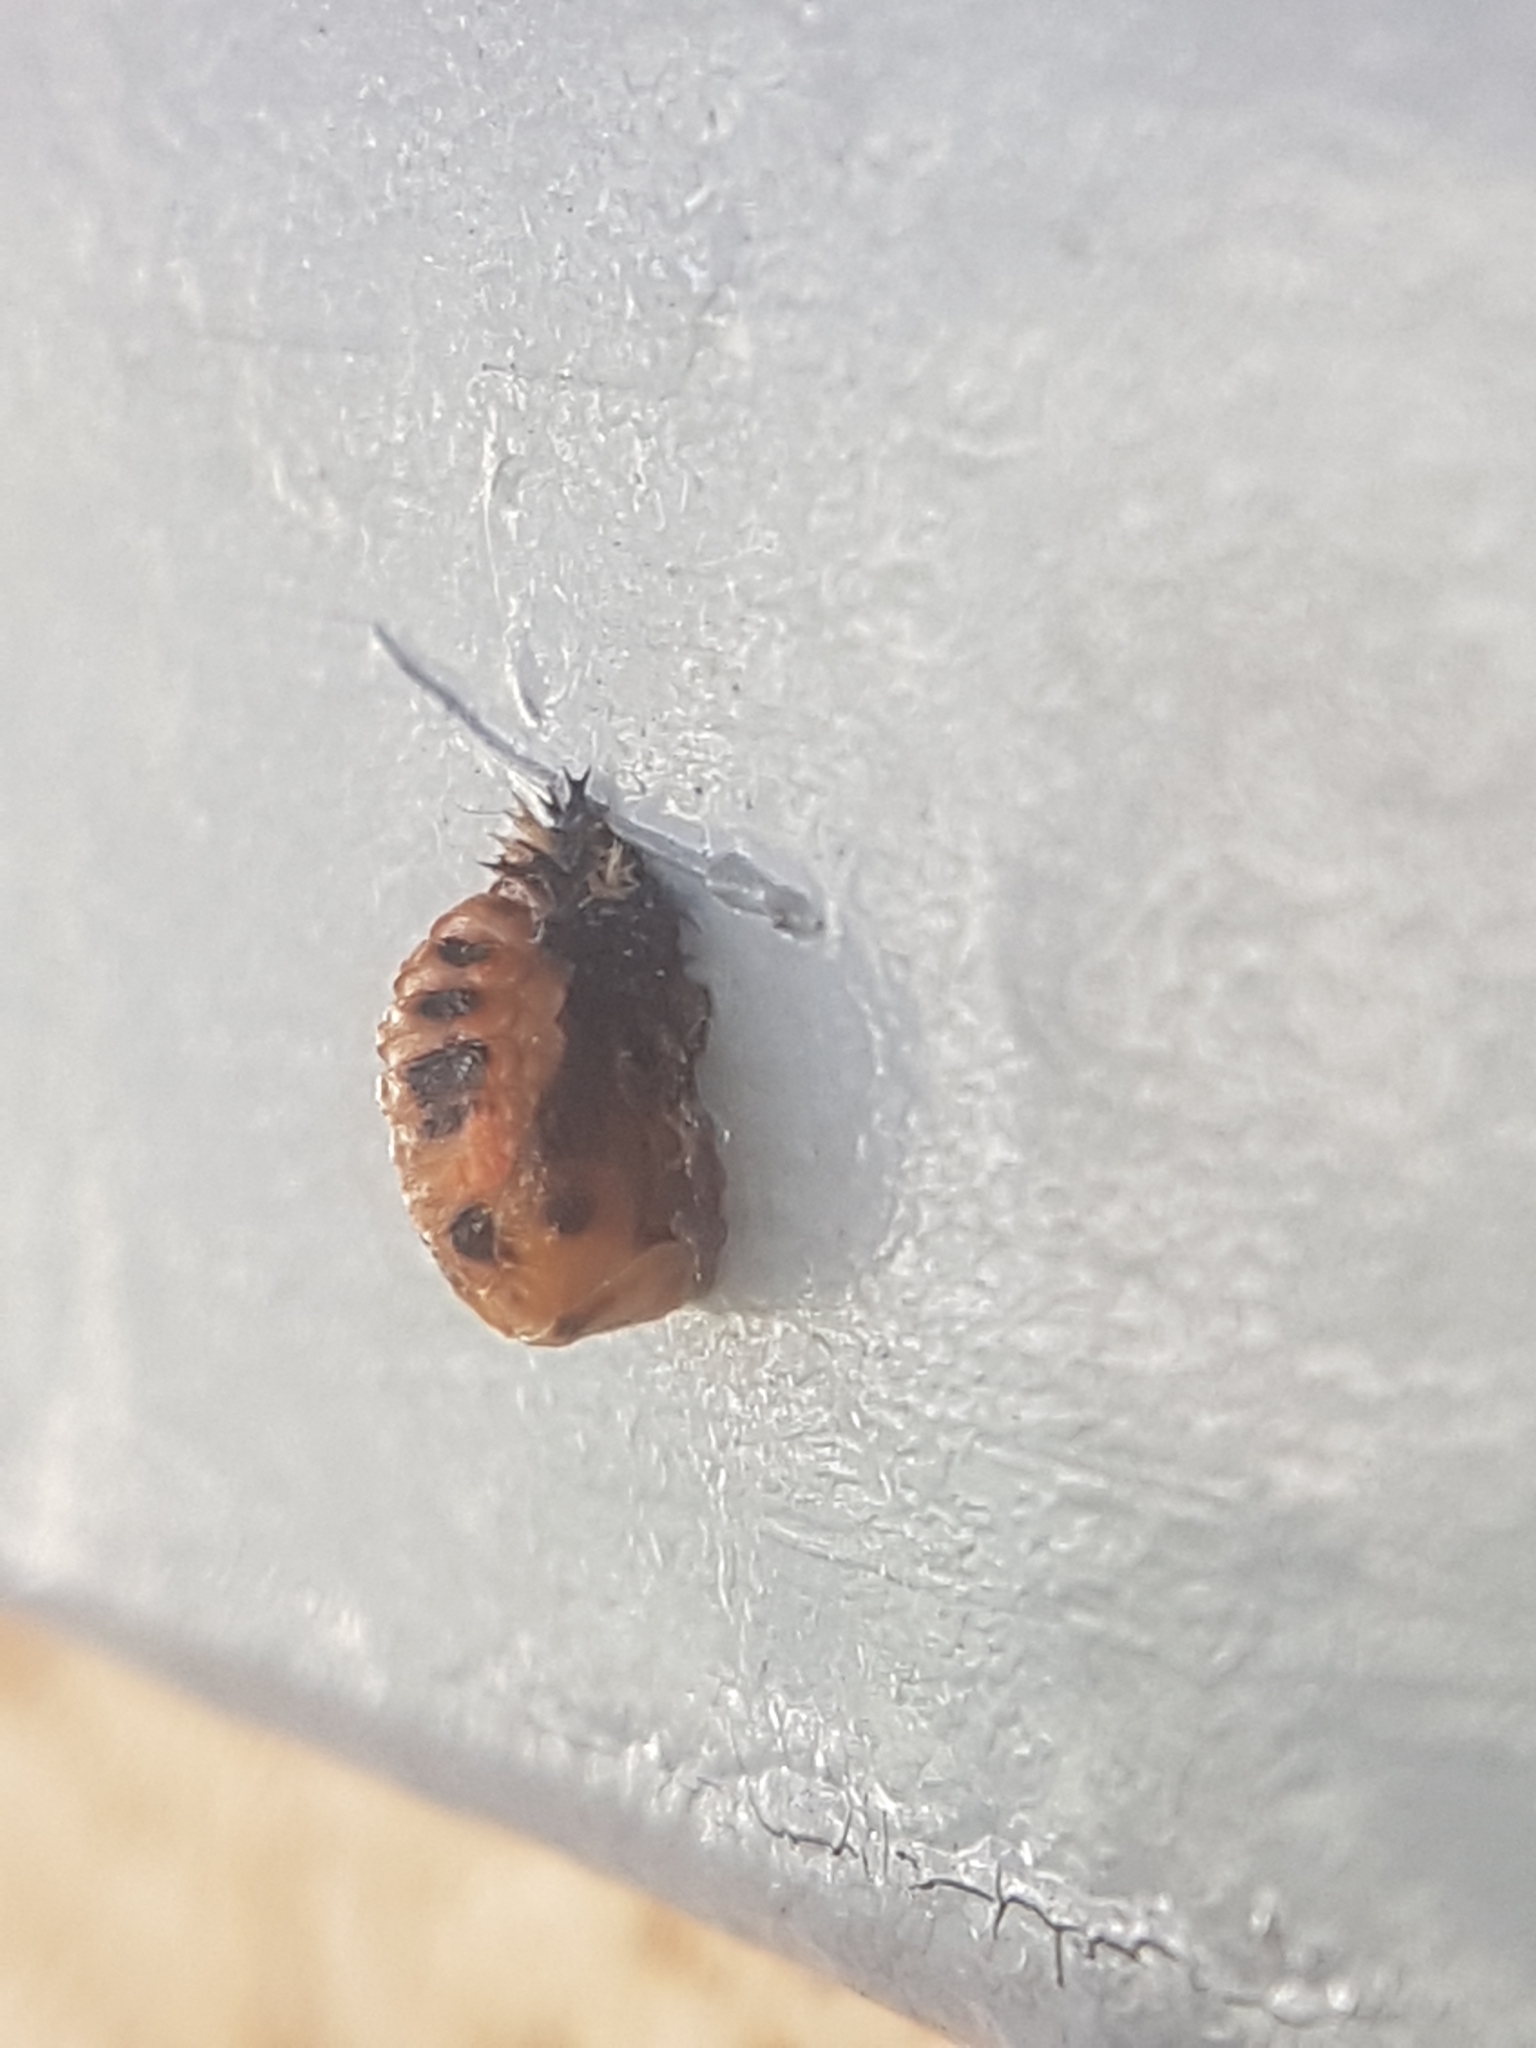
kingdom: Animalia
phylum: Arthropoda
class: Insecta
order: Coleoptera
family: Coccinellidae
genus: Harmonia
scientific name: Harmonia axyridis
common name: Harlequin ladybird
